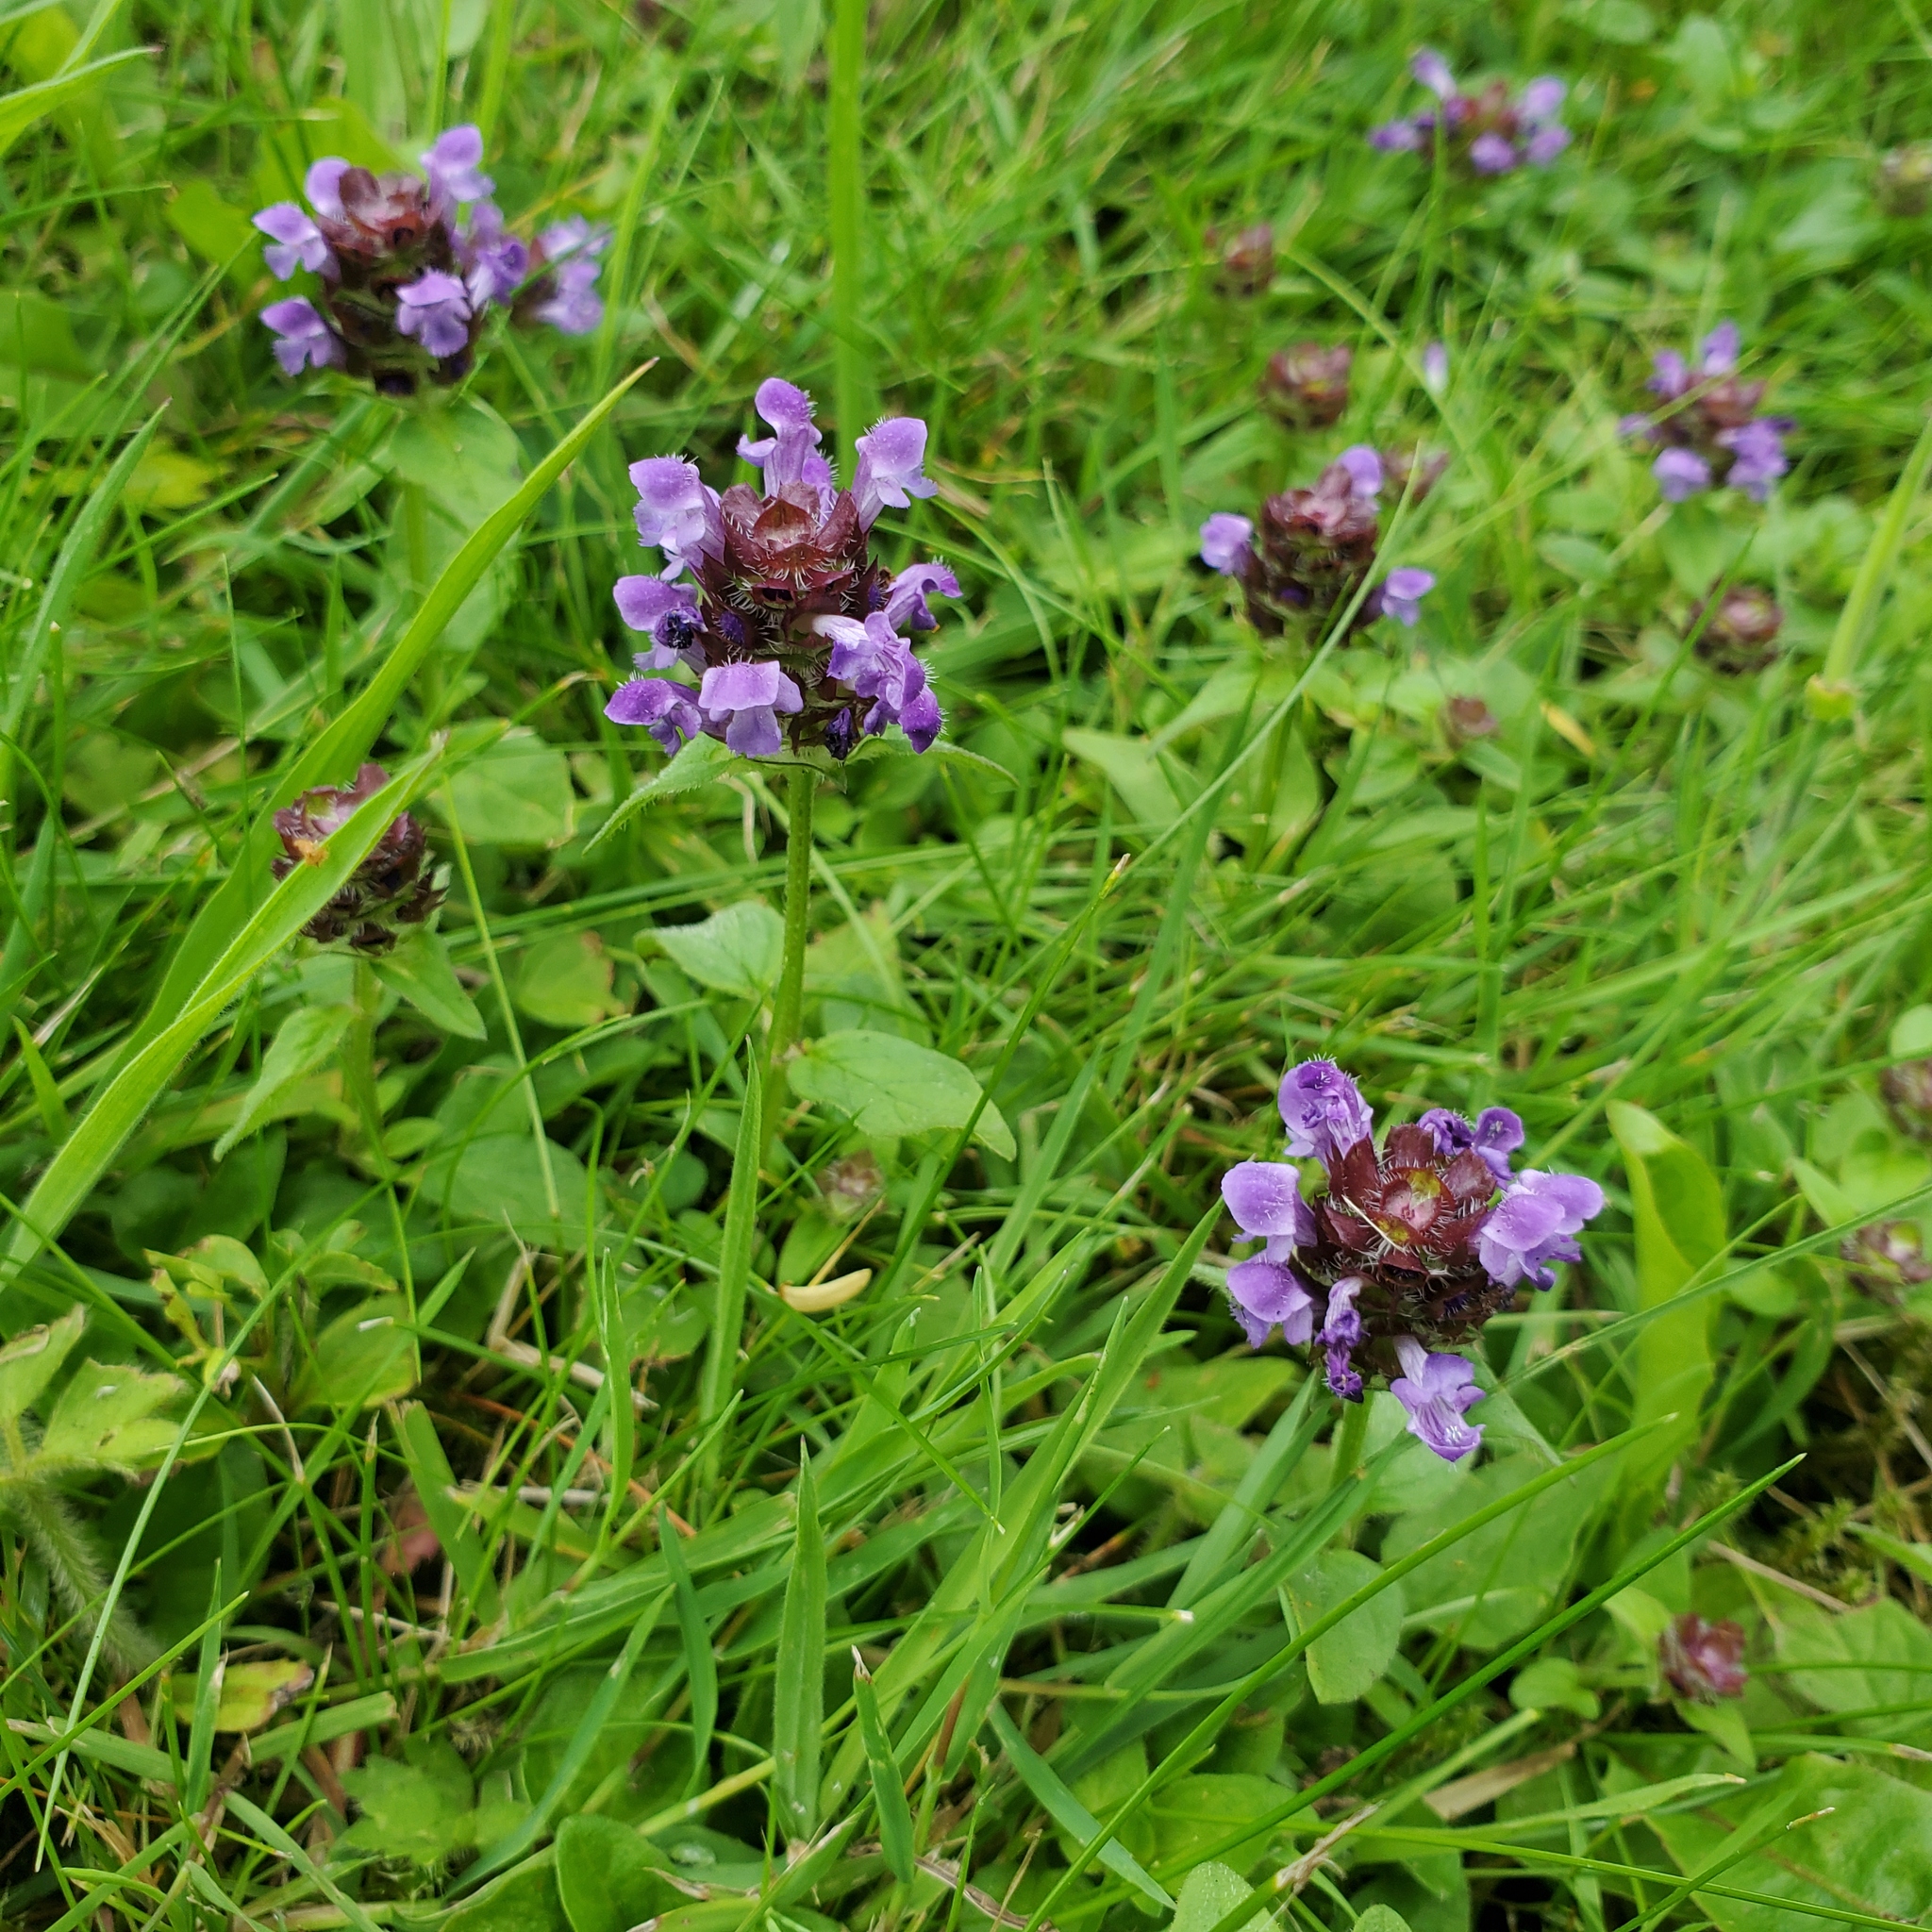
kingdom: Plantae
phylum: Tracheophyta
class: Magnoliopsida
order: Lamiales
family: Lamiaceae
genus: Prunella
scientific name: Prunella vulgaris
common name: Heal-all
